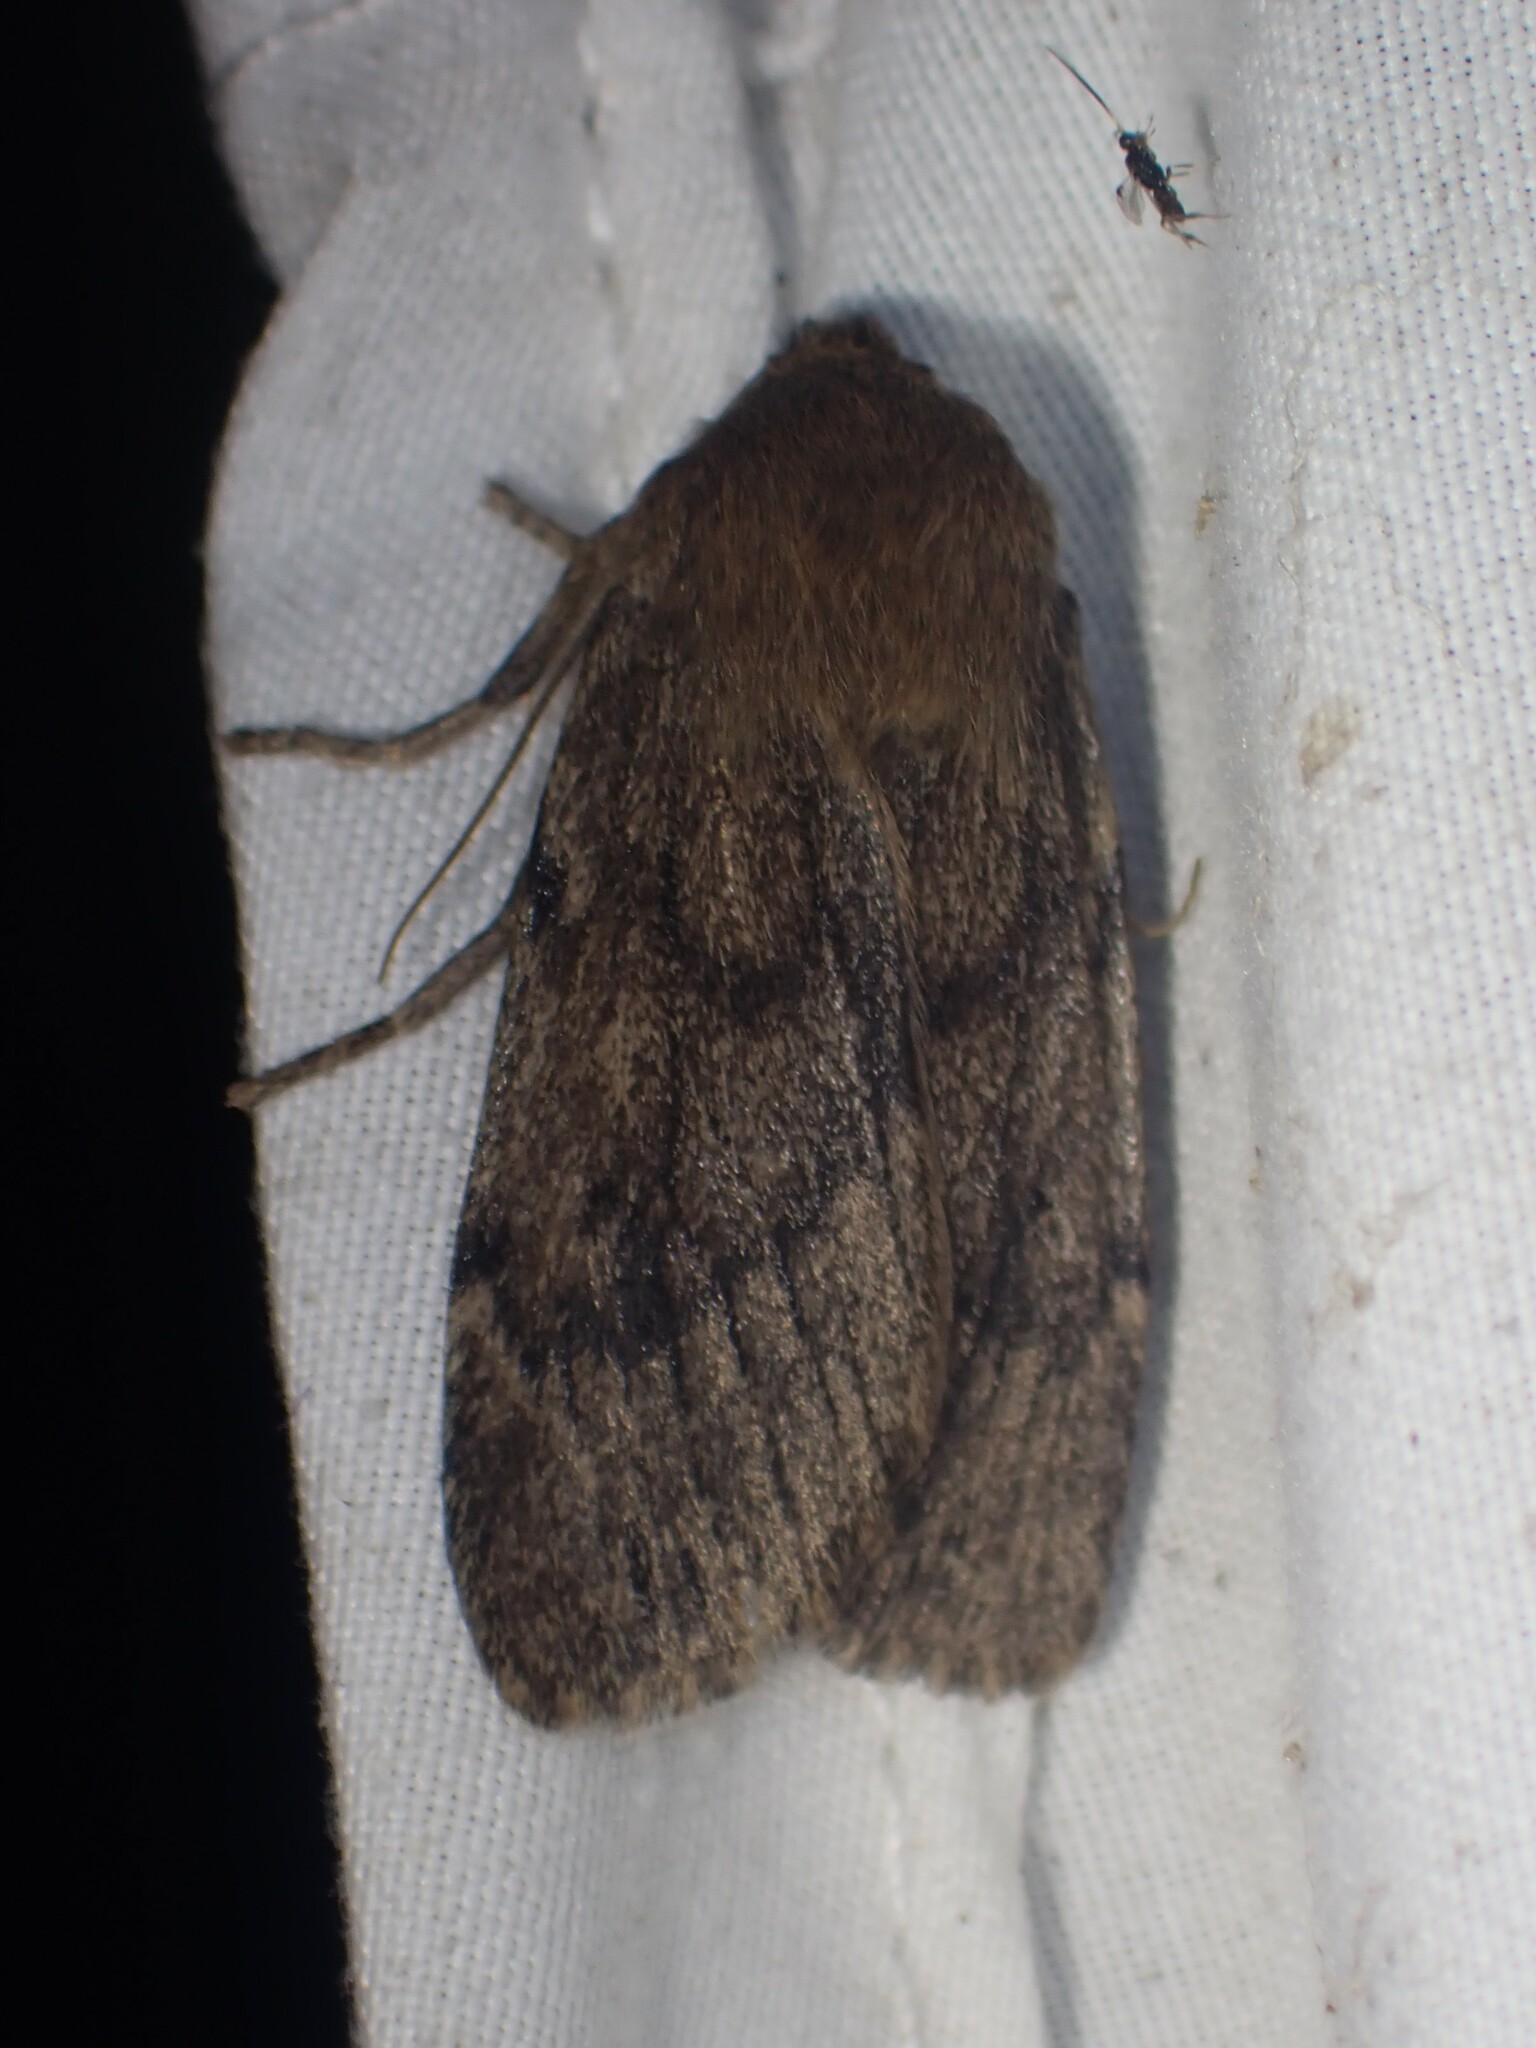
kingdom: Animalia
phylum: Arthropoda
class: Insecta
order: Lepidoptera
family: Noctuidae
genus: Ufeus
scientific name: Ufeus satyricus
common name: Brown satyr moth
